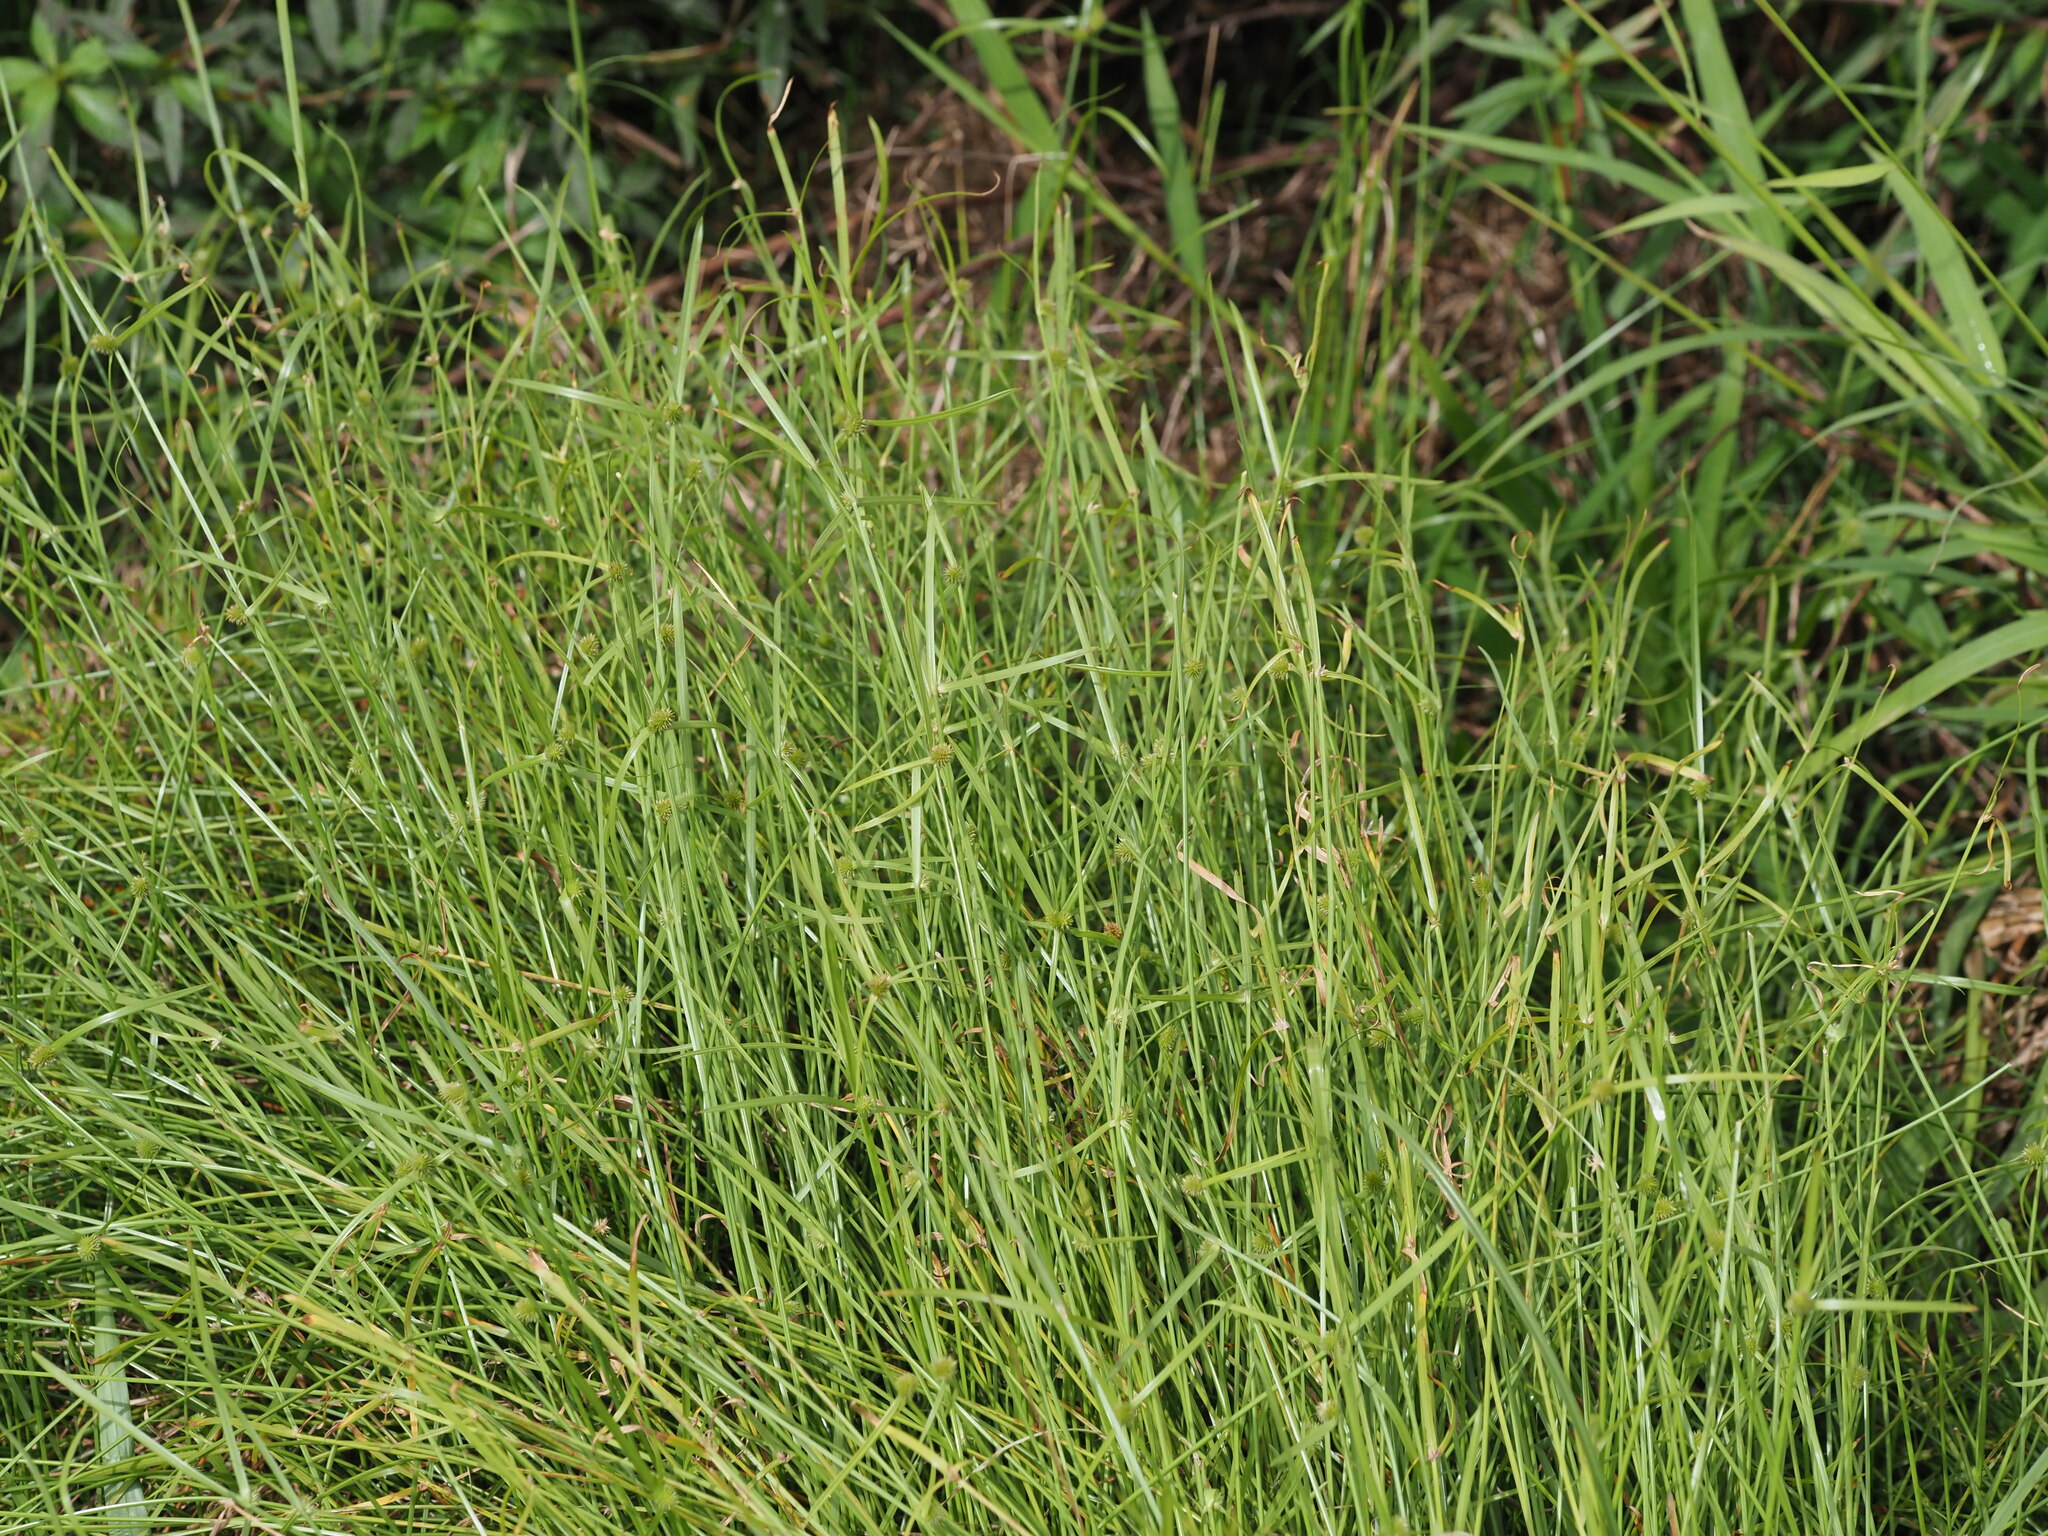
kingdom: Plantae
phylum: Tracheophyta
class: Liliopsida
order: Poales
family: Cyperaceae
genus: Cyperus
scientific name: Cyperus brevifolius
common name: Globe kyllinga
